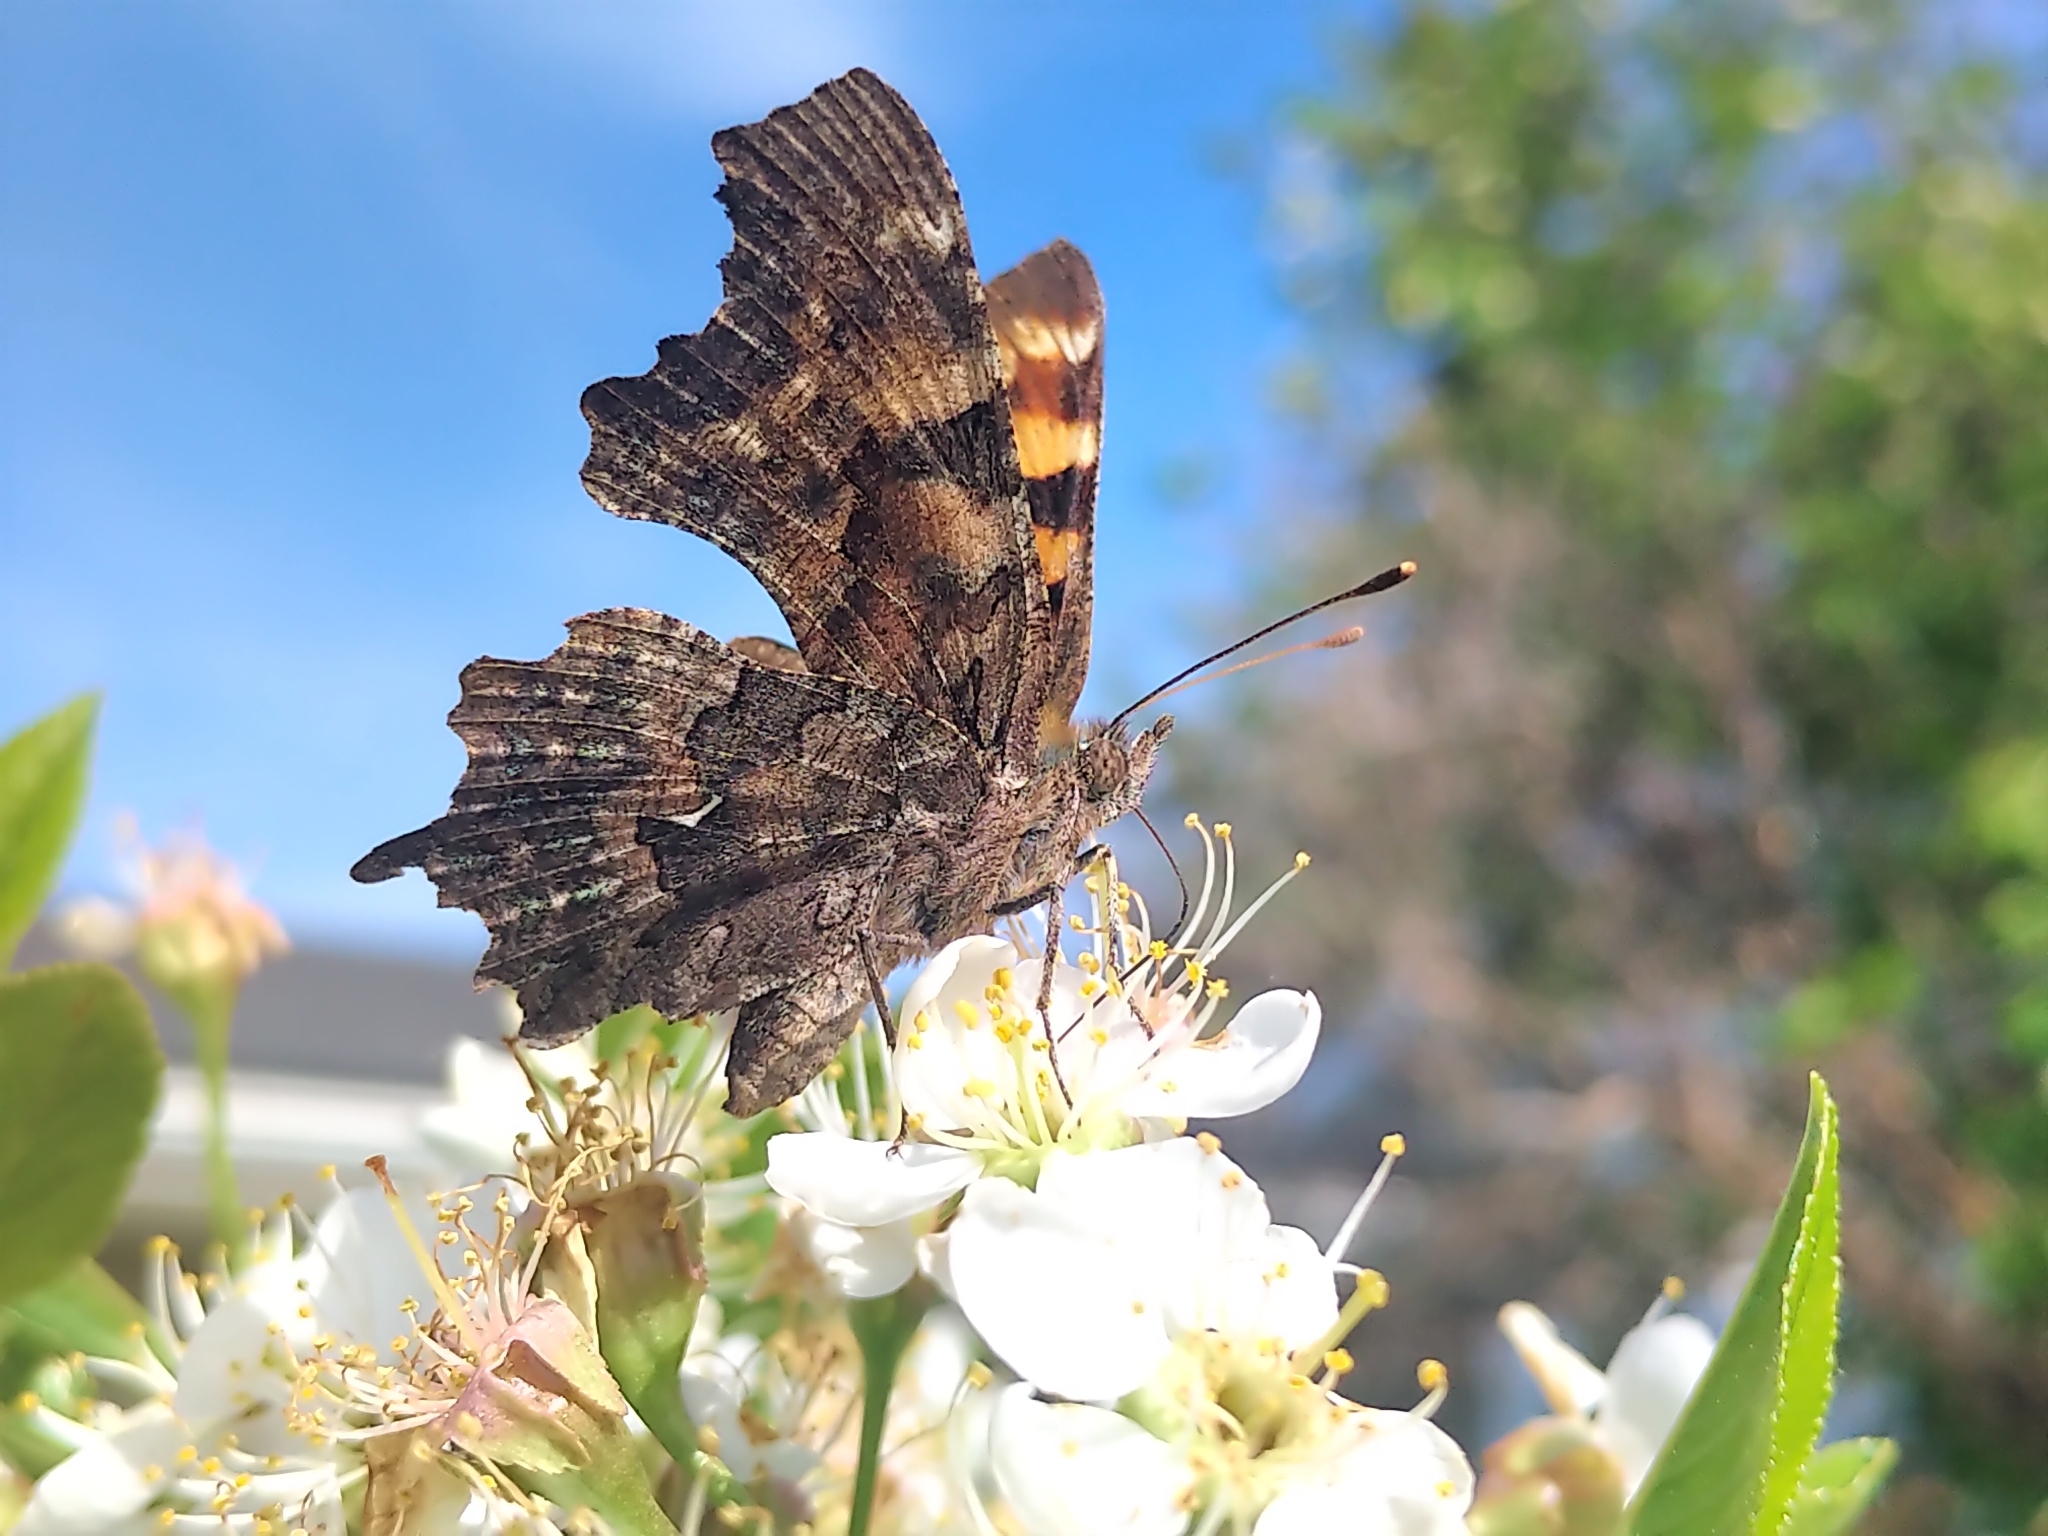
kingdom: Animalia
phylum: Arthropoda
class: Insecta
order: Lepidoptera
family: Nymphalidae
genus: Polygonia
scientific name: Polygonia faunus
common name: Green comma
